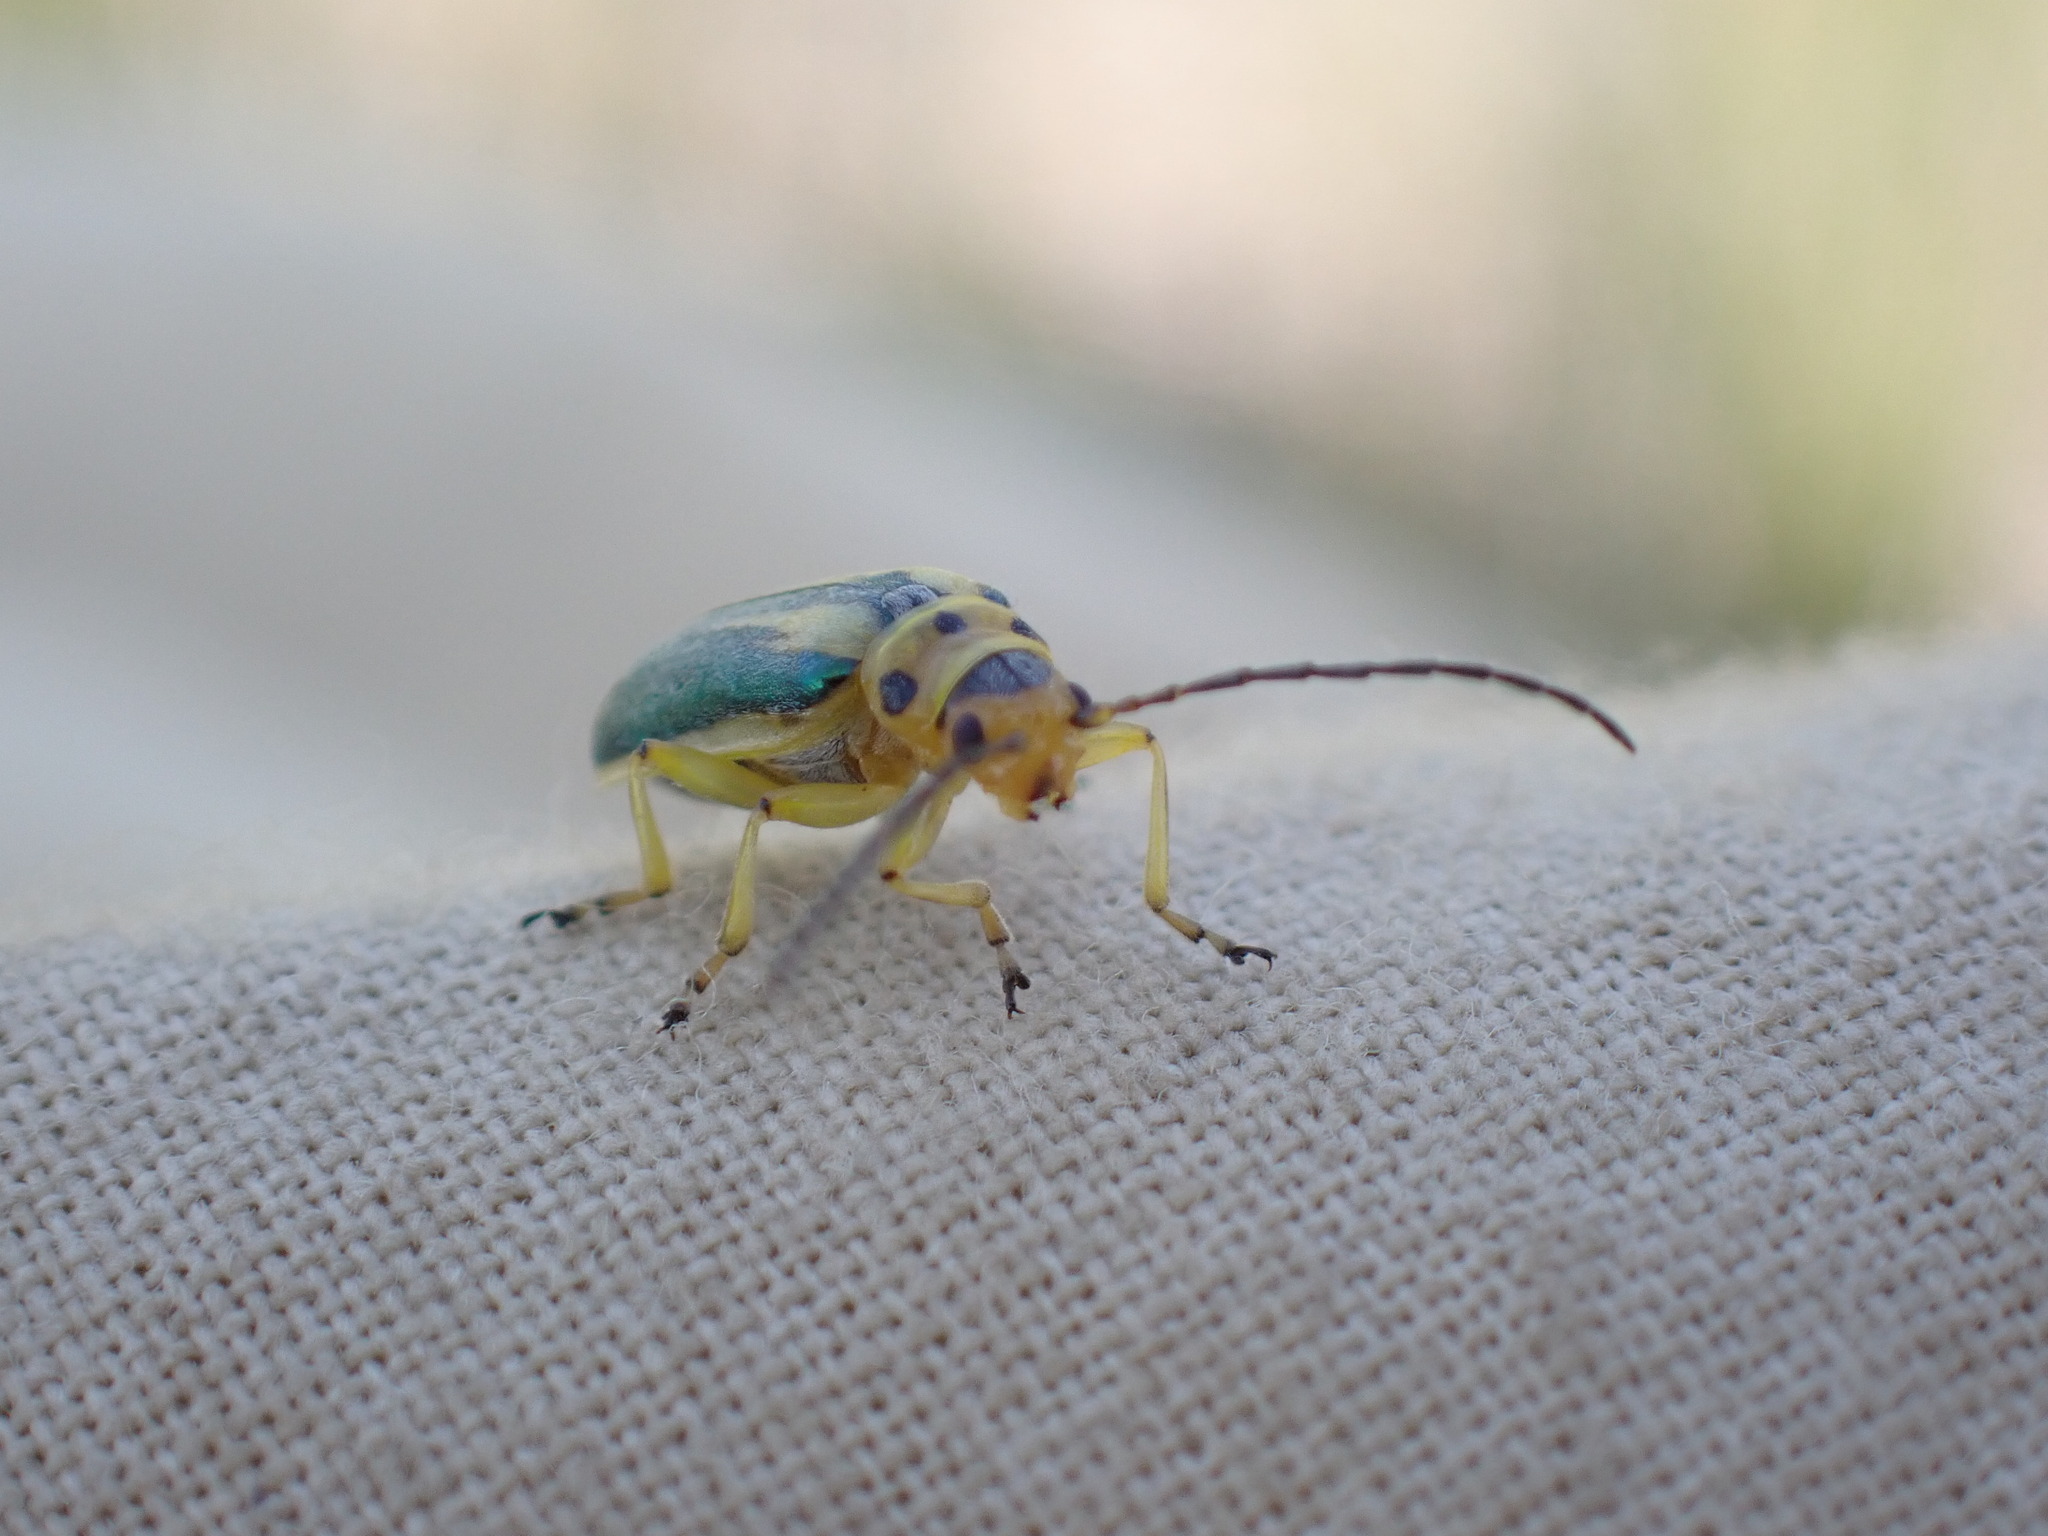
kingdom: Animalia
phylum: Arthropoda
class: Insecta
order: Coleoptera
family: Chrysomelidae
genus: Trirhabda
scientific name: Trirhabda attenuata
